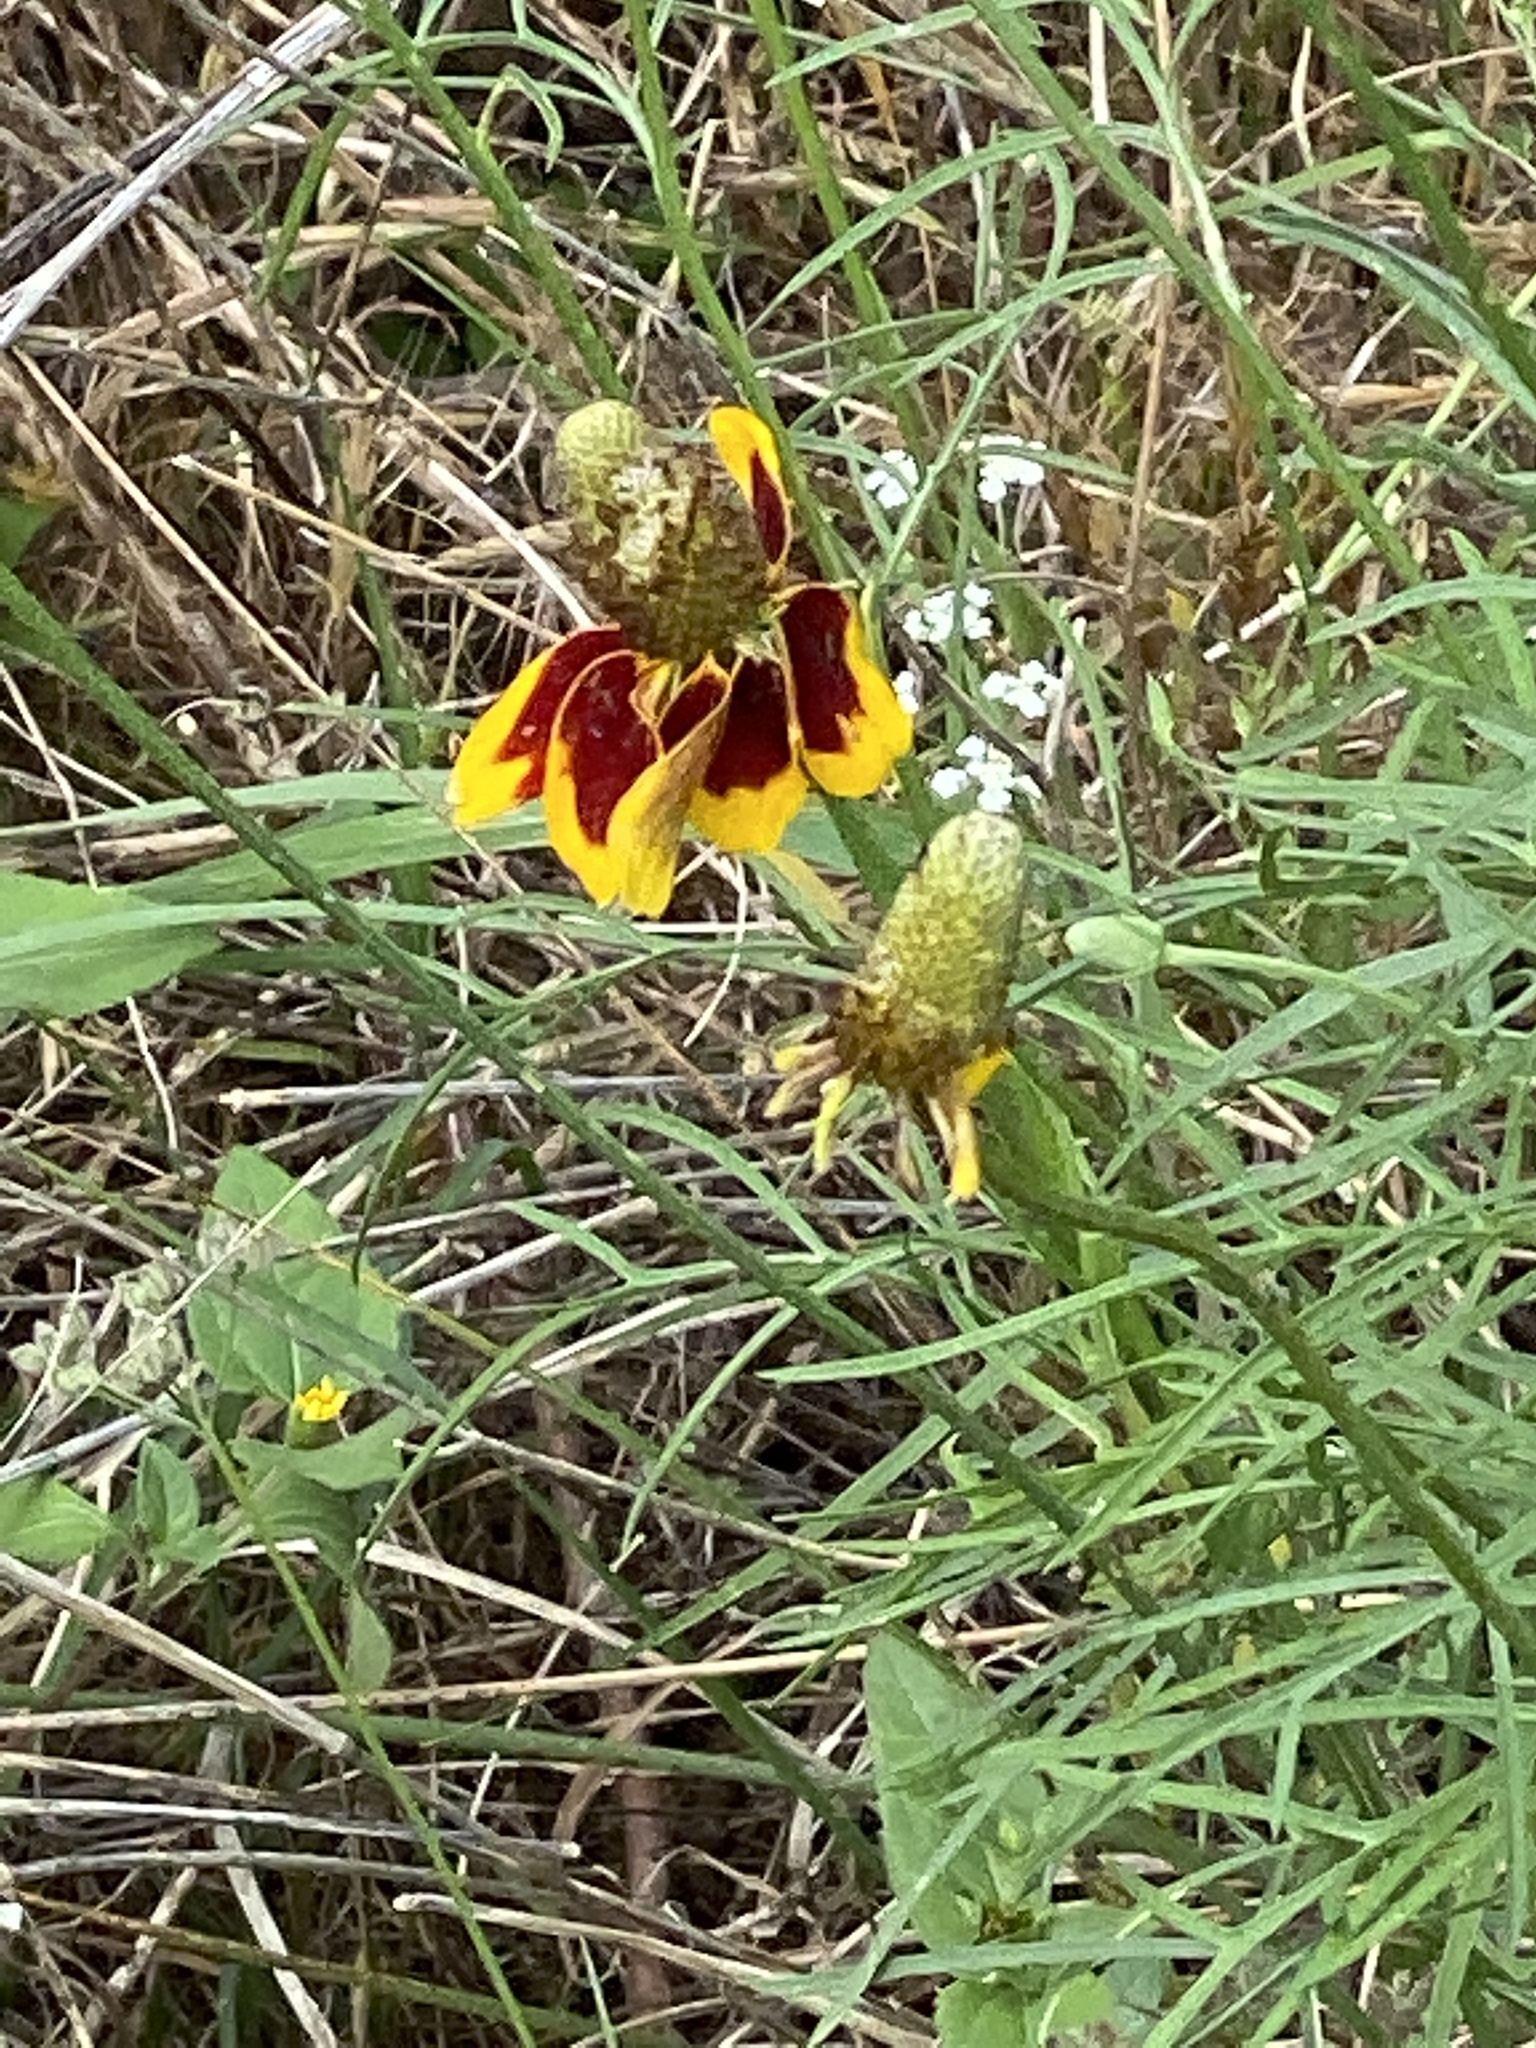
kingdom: Plantae
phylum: Tracheophyta
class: Magnoliopsida
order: Asterales
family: Asteraceae
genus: Ratibida
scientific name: Ratibida columnifera
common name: Prairie coneflower
